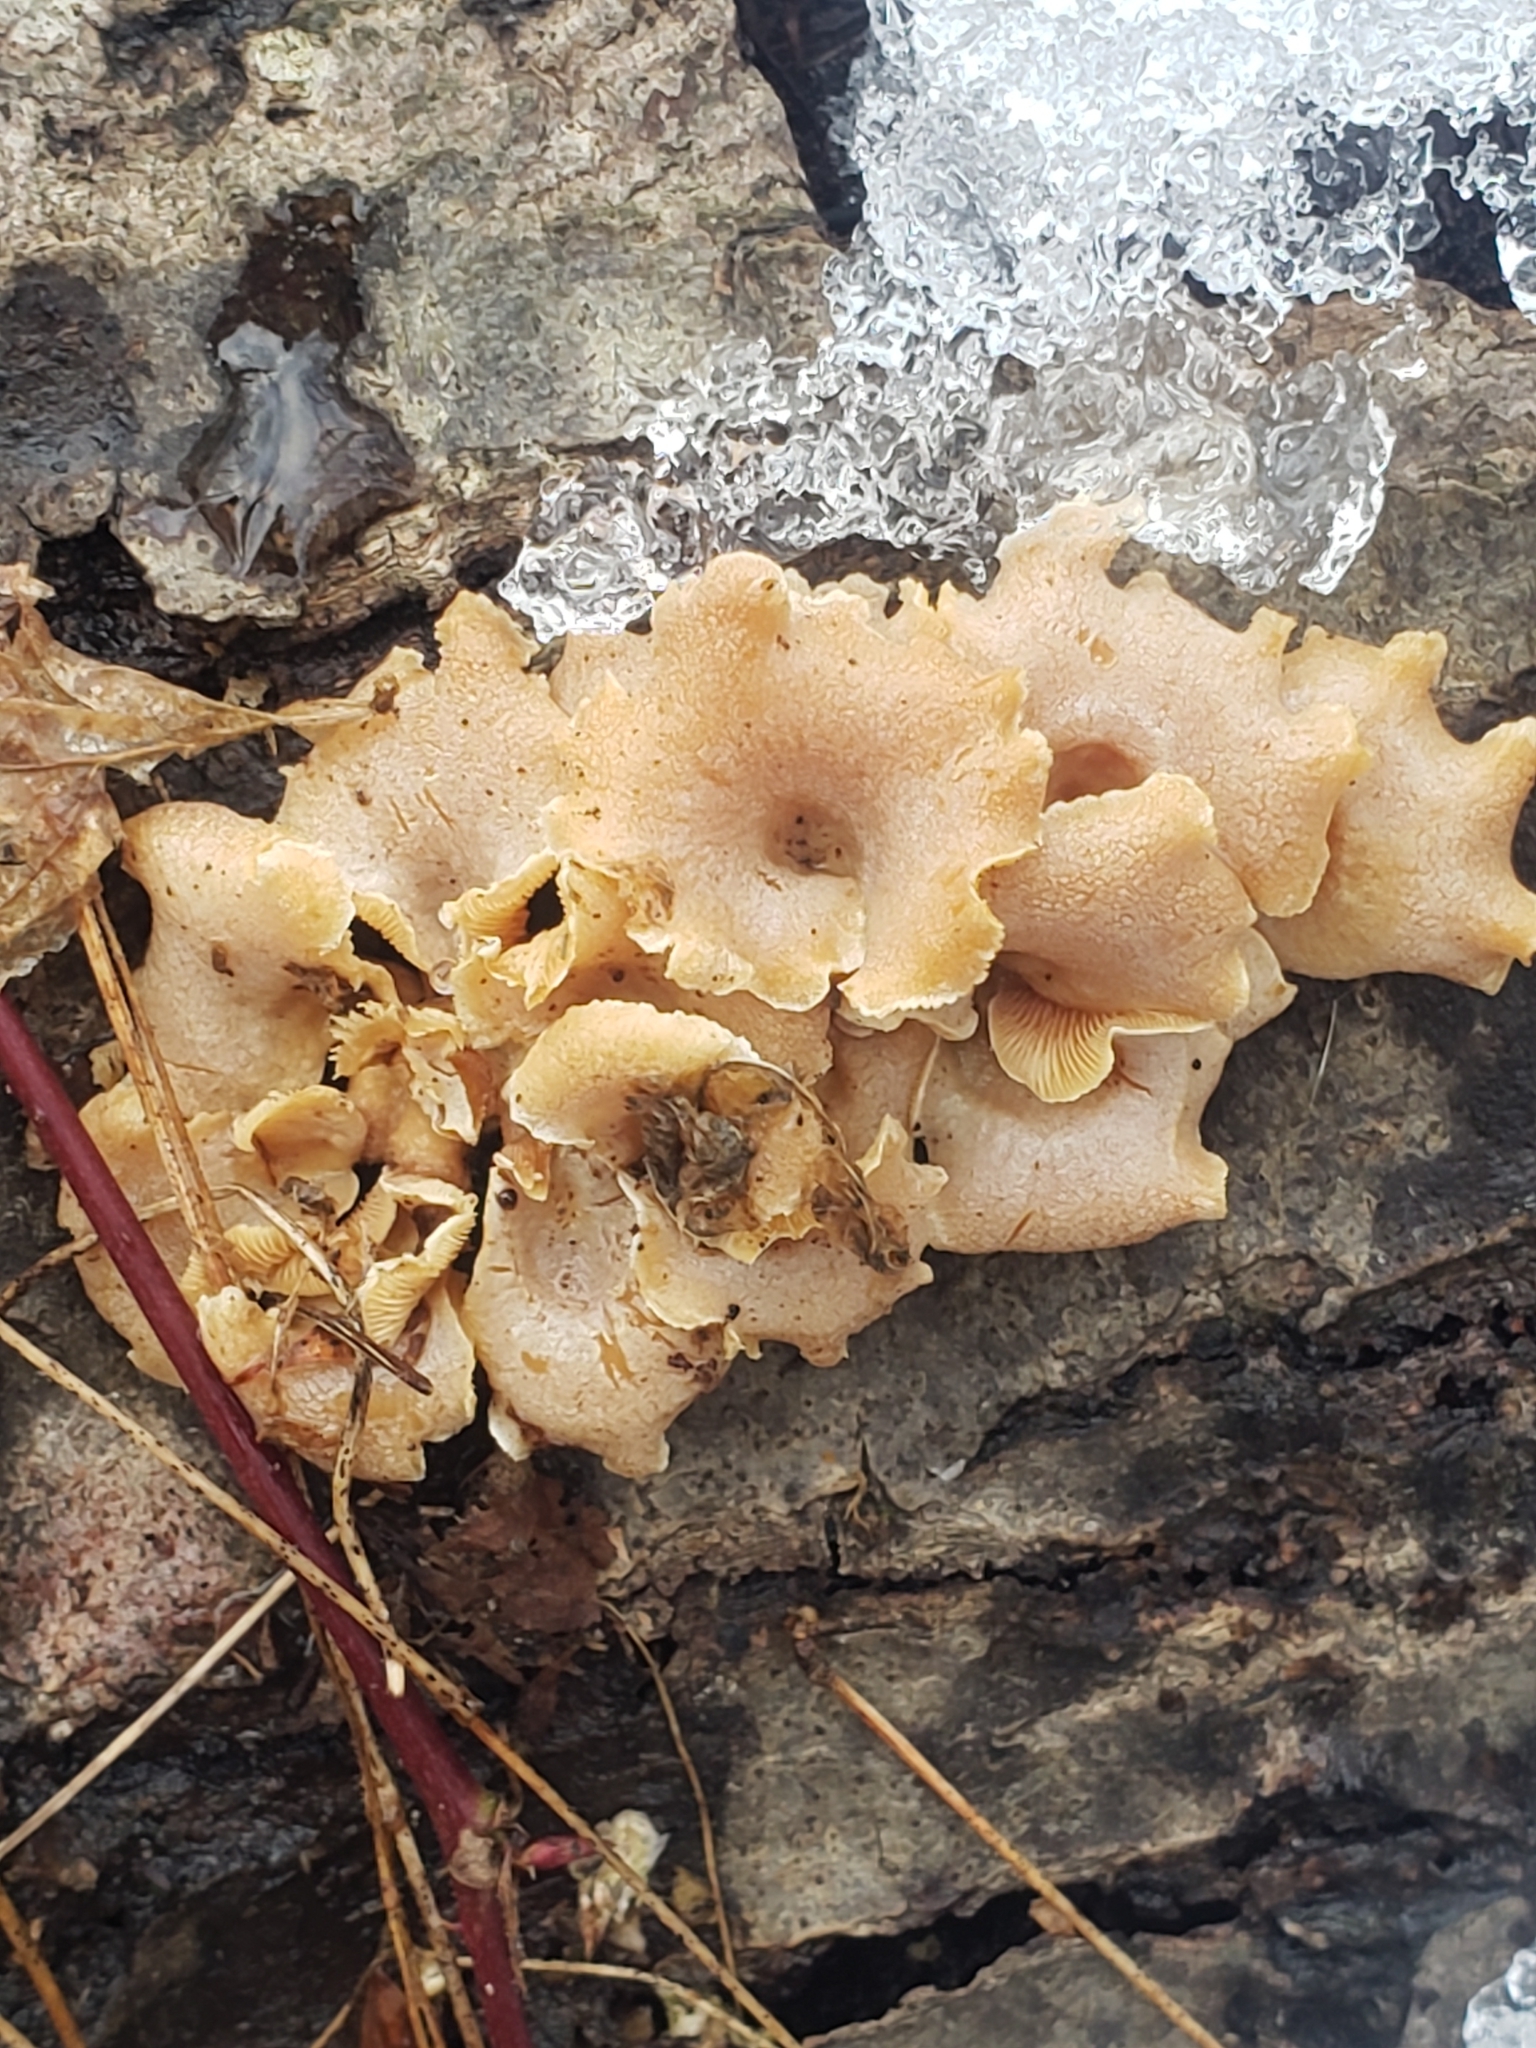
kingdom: Fungi
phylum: Basidiomycota
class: Agaricomycetes
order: Agaricales
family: Mycenaceae
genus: Panellus
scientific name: Panellus stipticus
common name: Bitter oysterling
